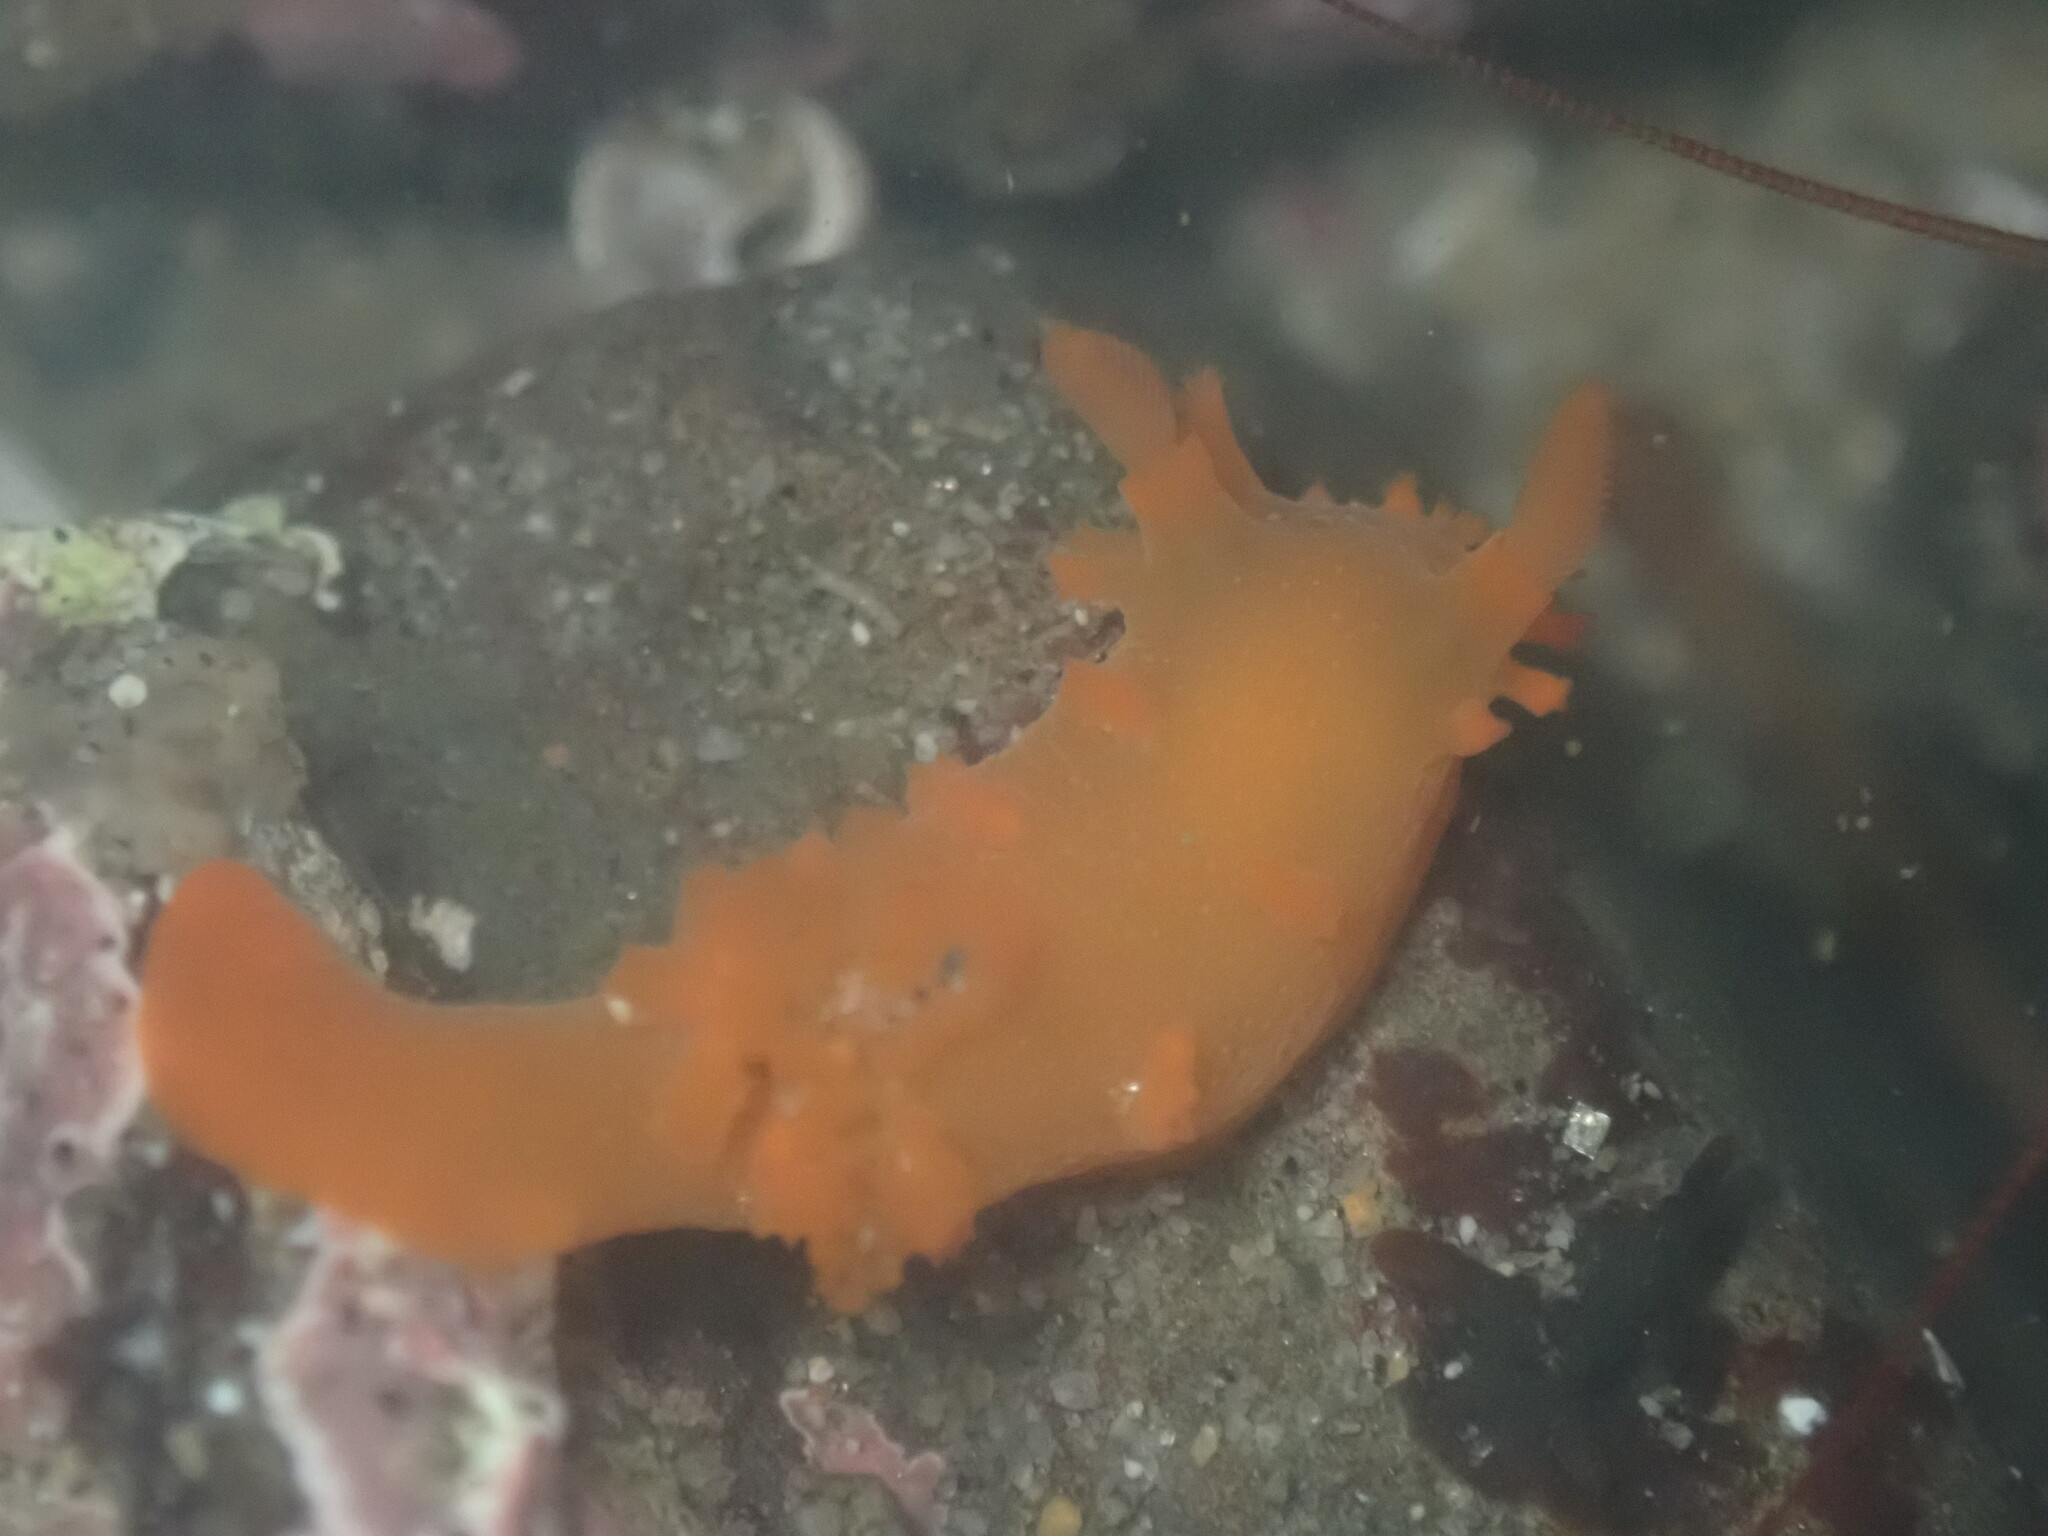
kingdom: Animalia
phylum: Mollusca
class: Gastropoda
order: Nudibranchia
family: Polyceridae
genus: Triopha
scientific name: Triopha maculata
